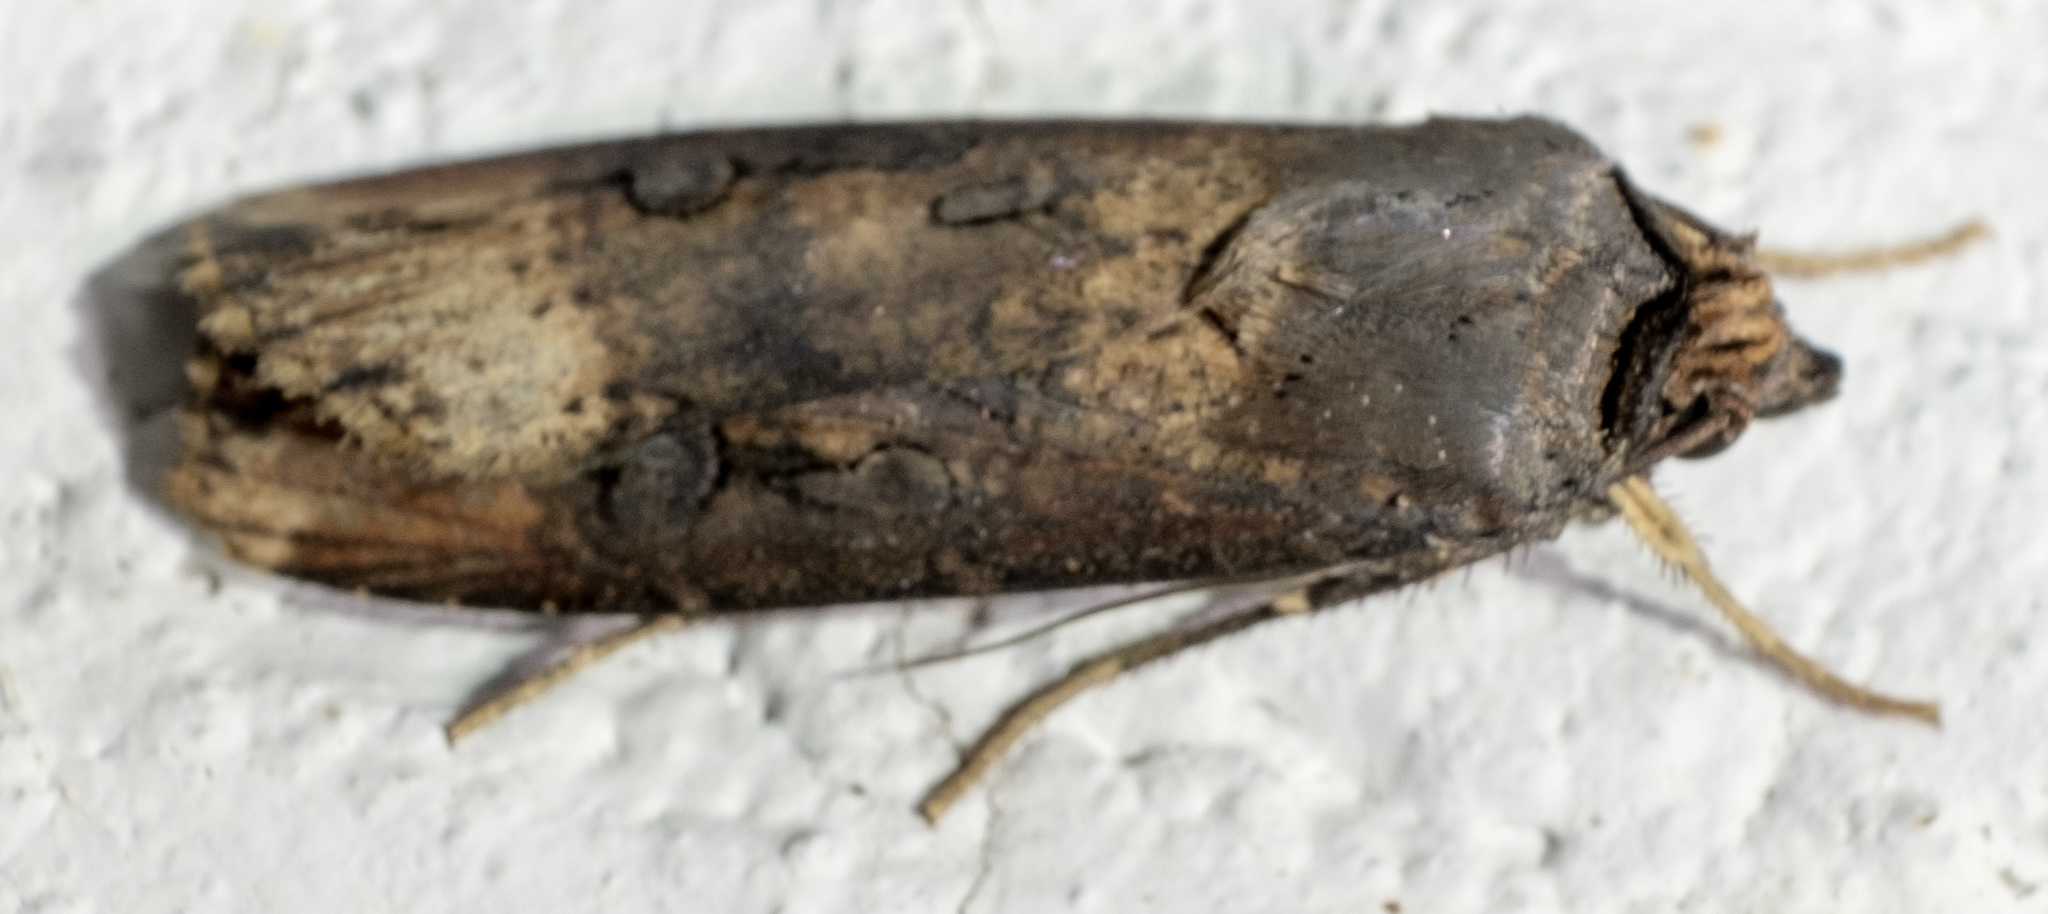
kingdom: Animalia
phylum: Arthropoda
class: Insecta
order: Lepidoptera
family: Noctuidae
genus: Agrotis
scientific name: Agrotis ipsilon
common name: Dark sword-grass
